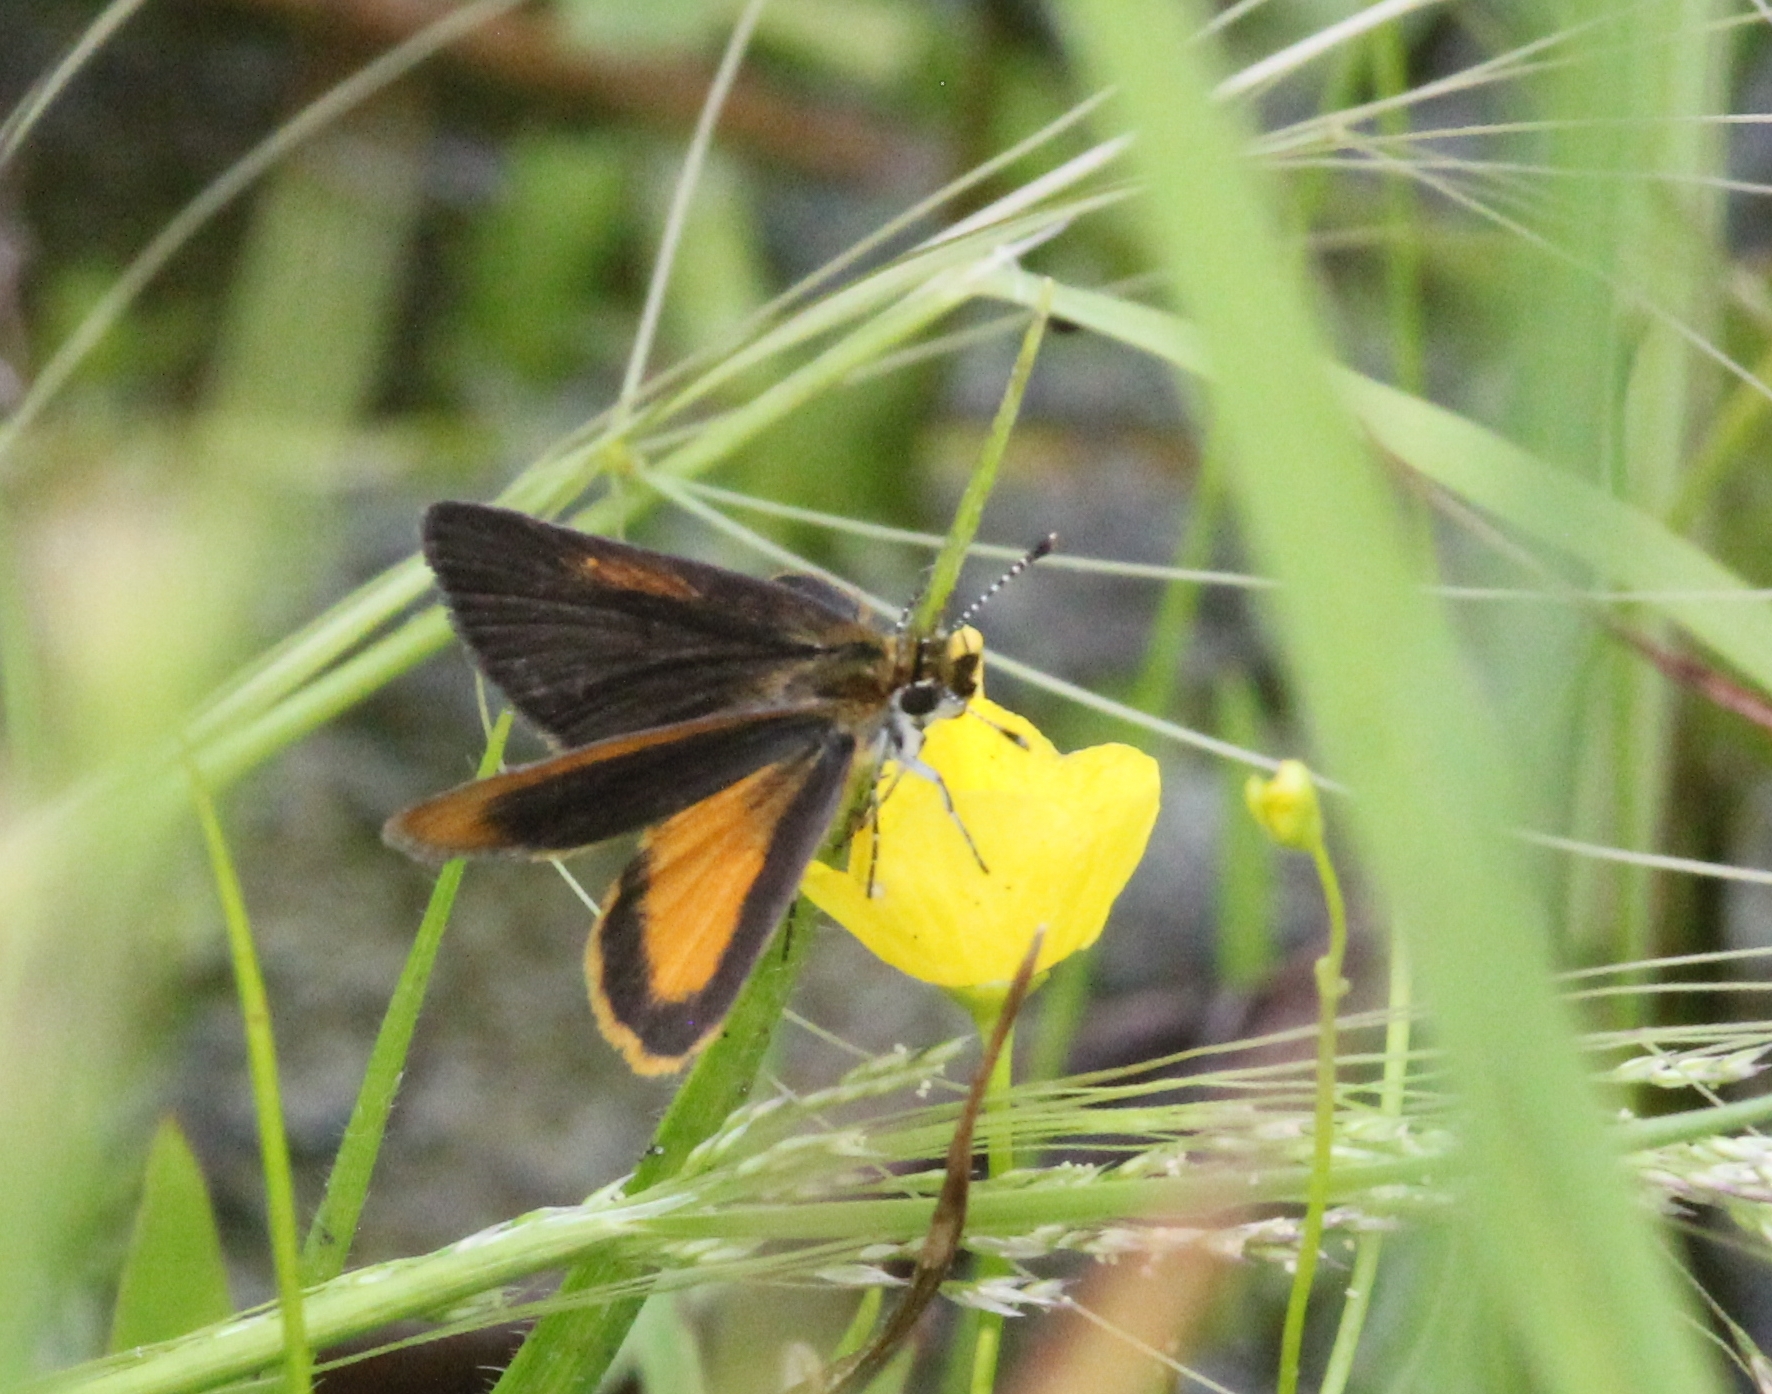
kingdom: Animalia
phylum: Arthropoda
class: Insecta
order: Lepidoptera
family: Hesperiidae
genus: Ancyloxypha
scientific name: Ancyloxypha numitor
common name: Least skipper
